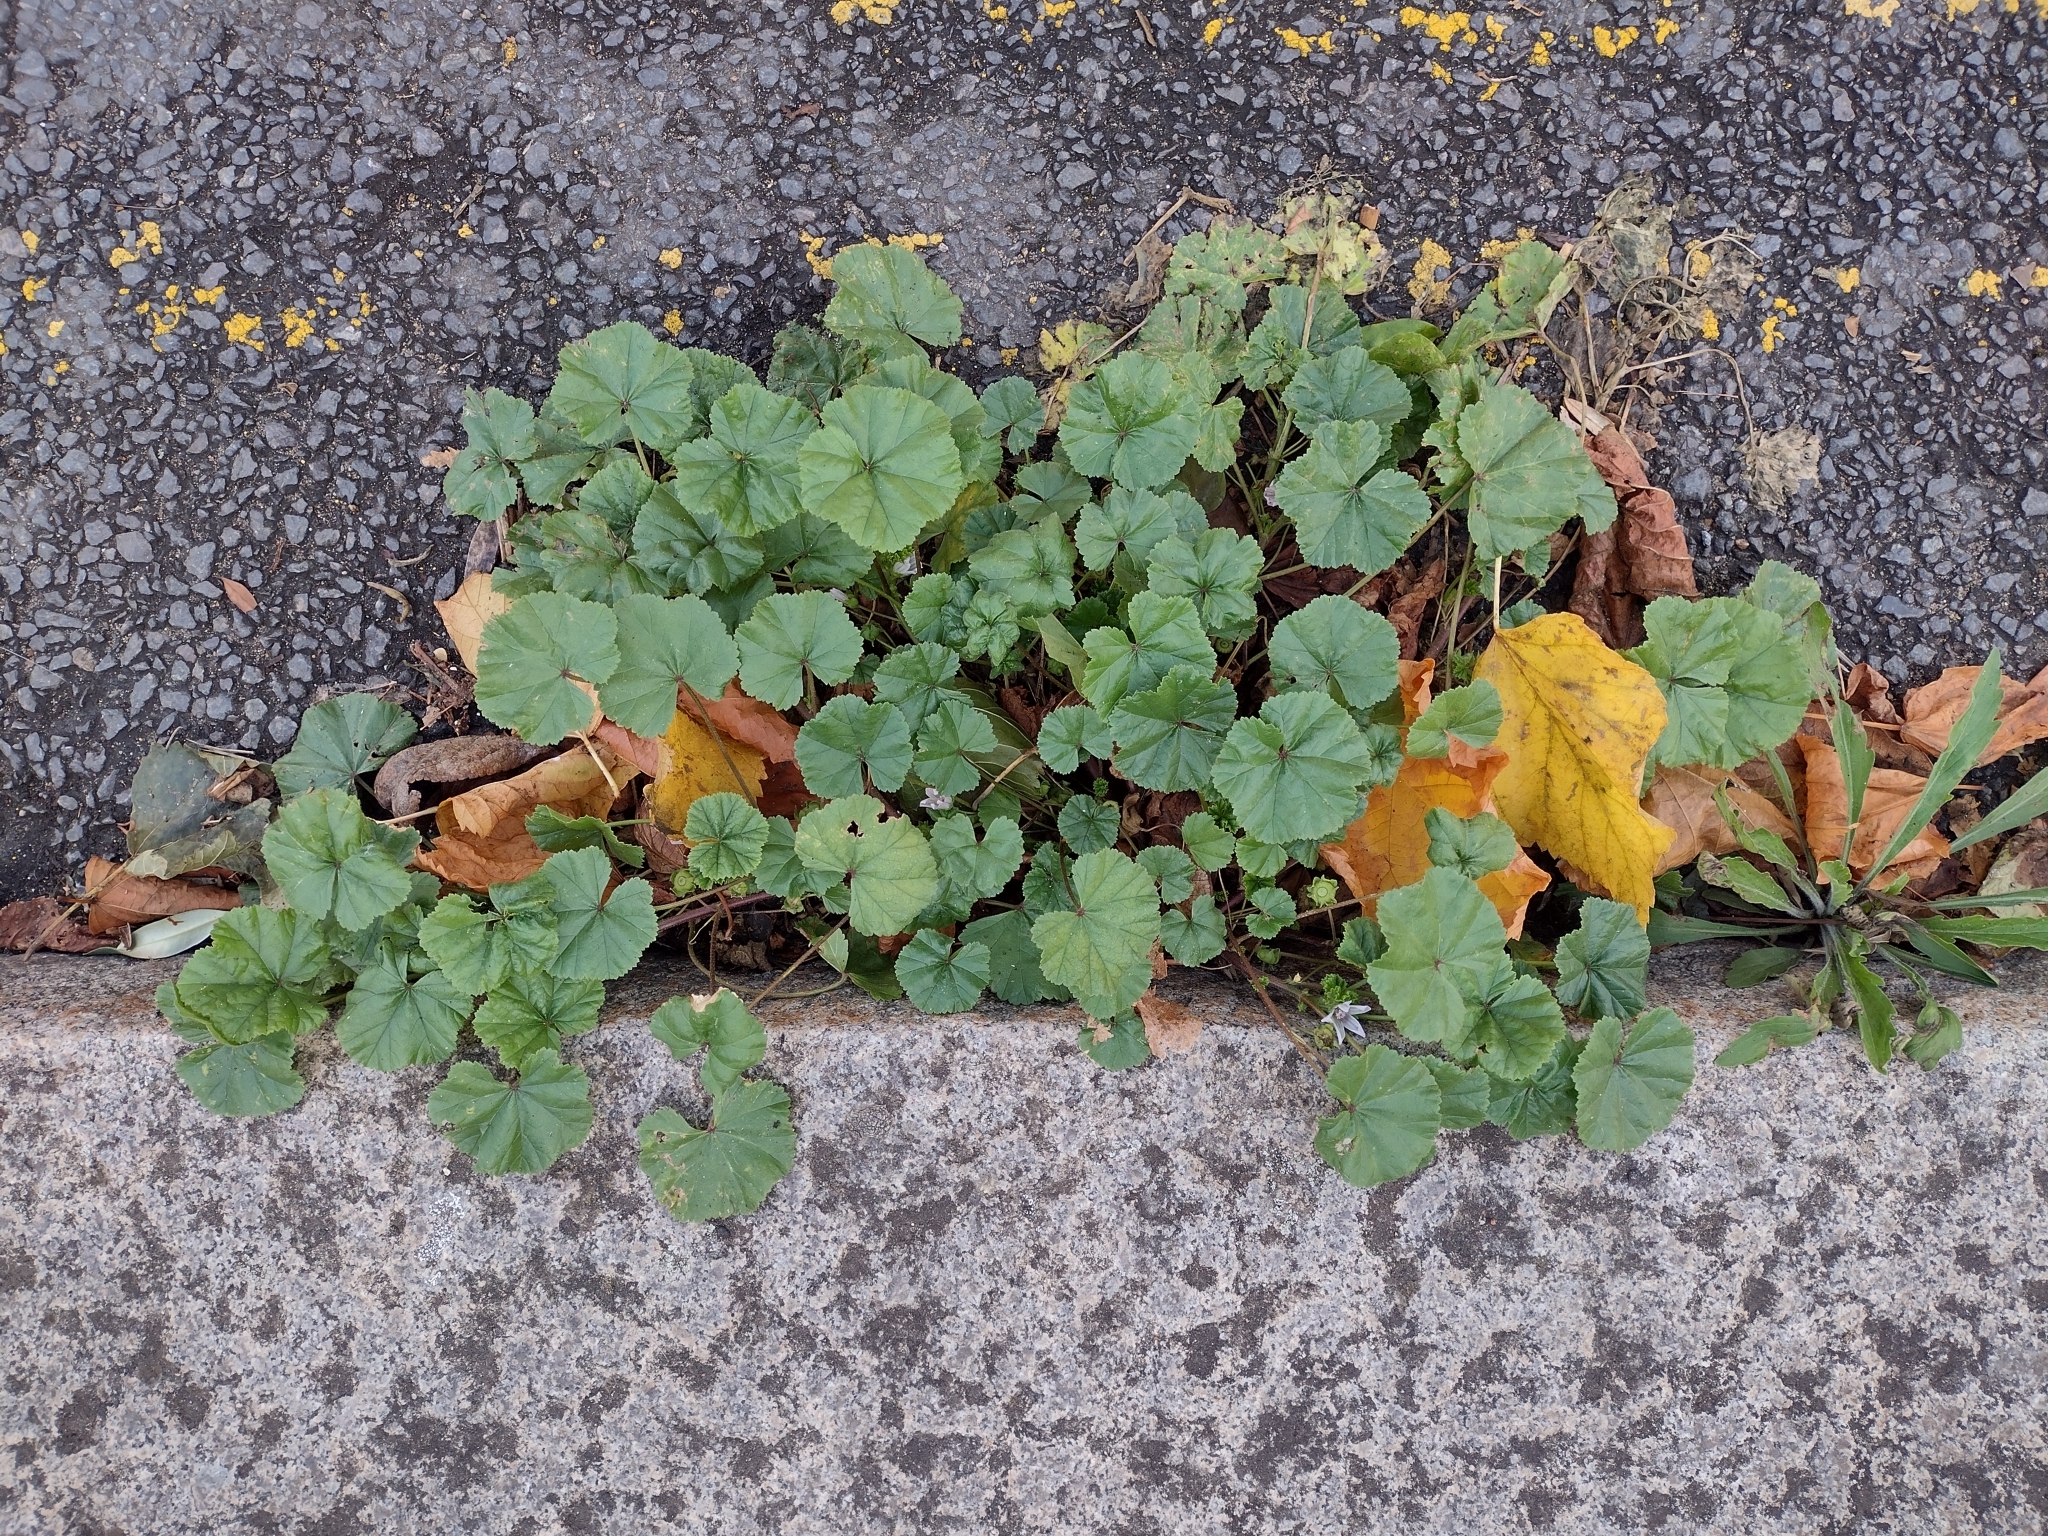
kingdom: Plantae
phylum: Tracheophyta
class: Magnoliopsida
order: Malvales
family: Malvaceae
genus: Malva
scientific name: Malva neglecta
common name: Common mallow
